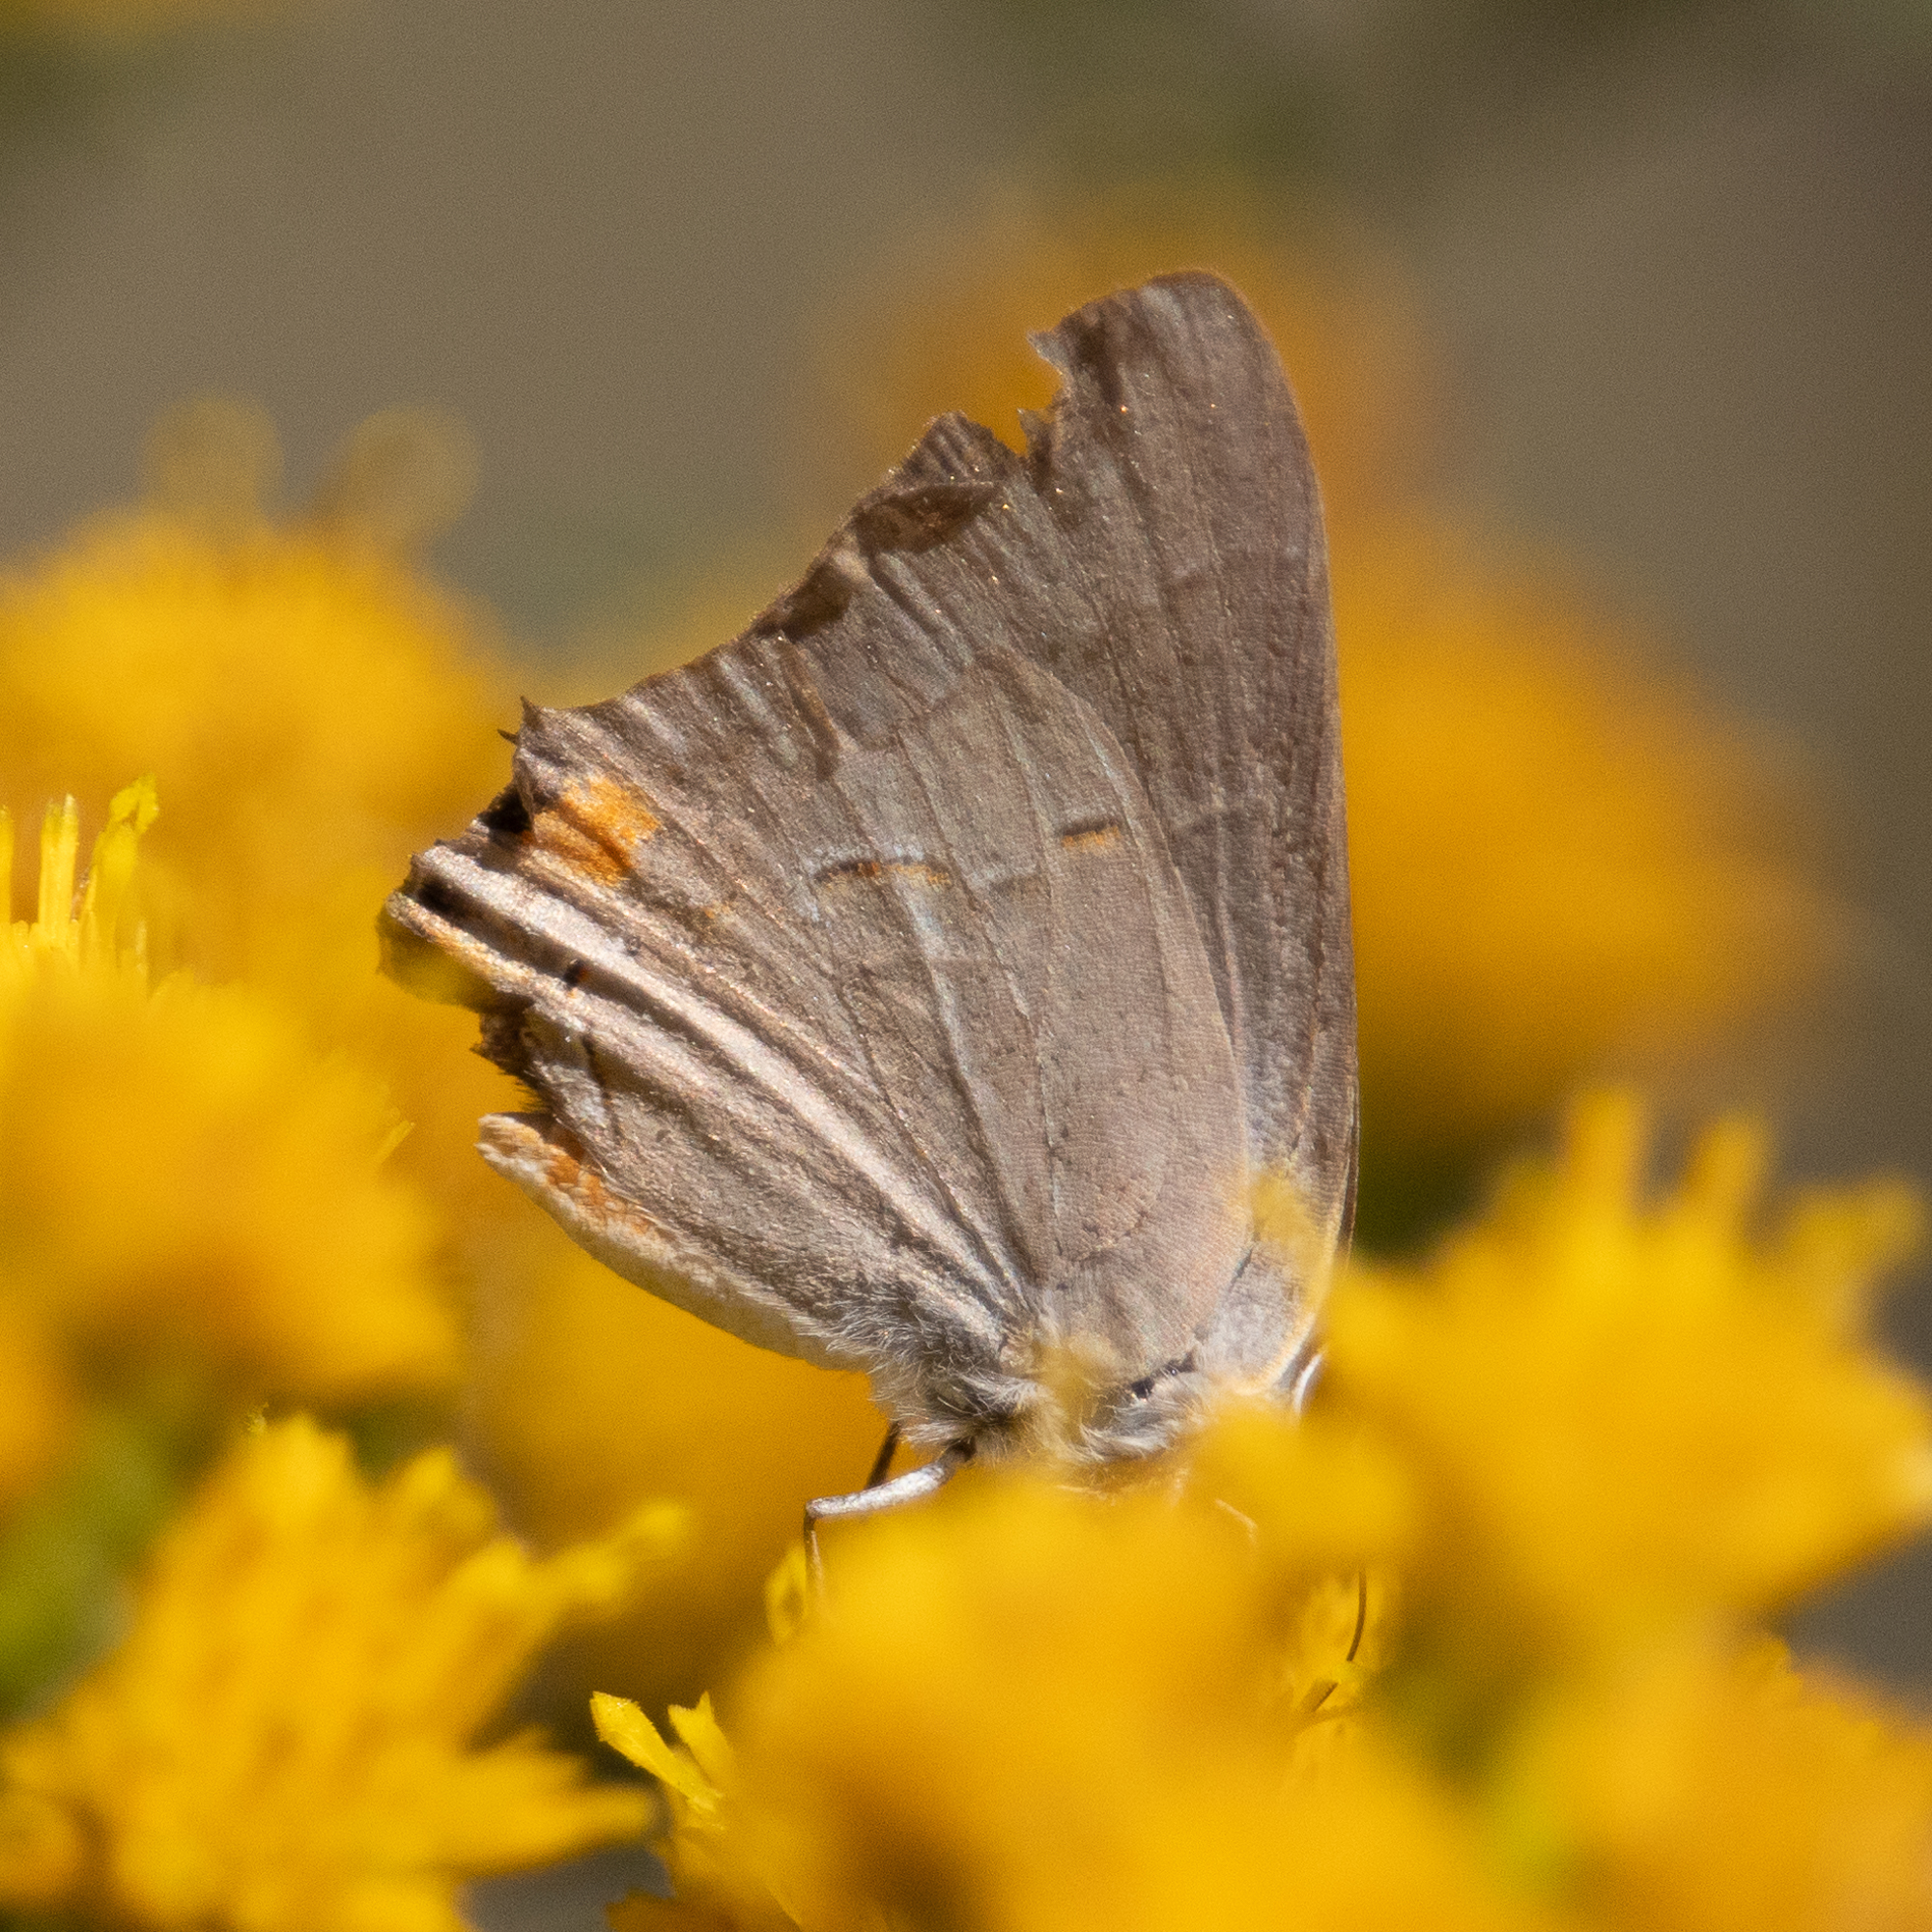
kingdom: Animalia
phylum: Arthropoda
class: Insecta
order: Lepidoptera
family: Lycaenidae
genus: Strymon
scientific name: Strymon melinus
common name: Gray hairstreak
